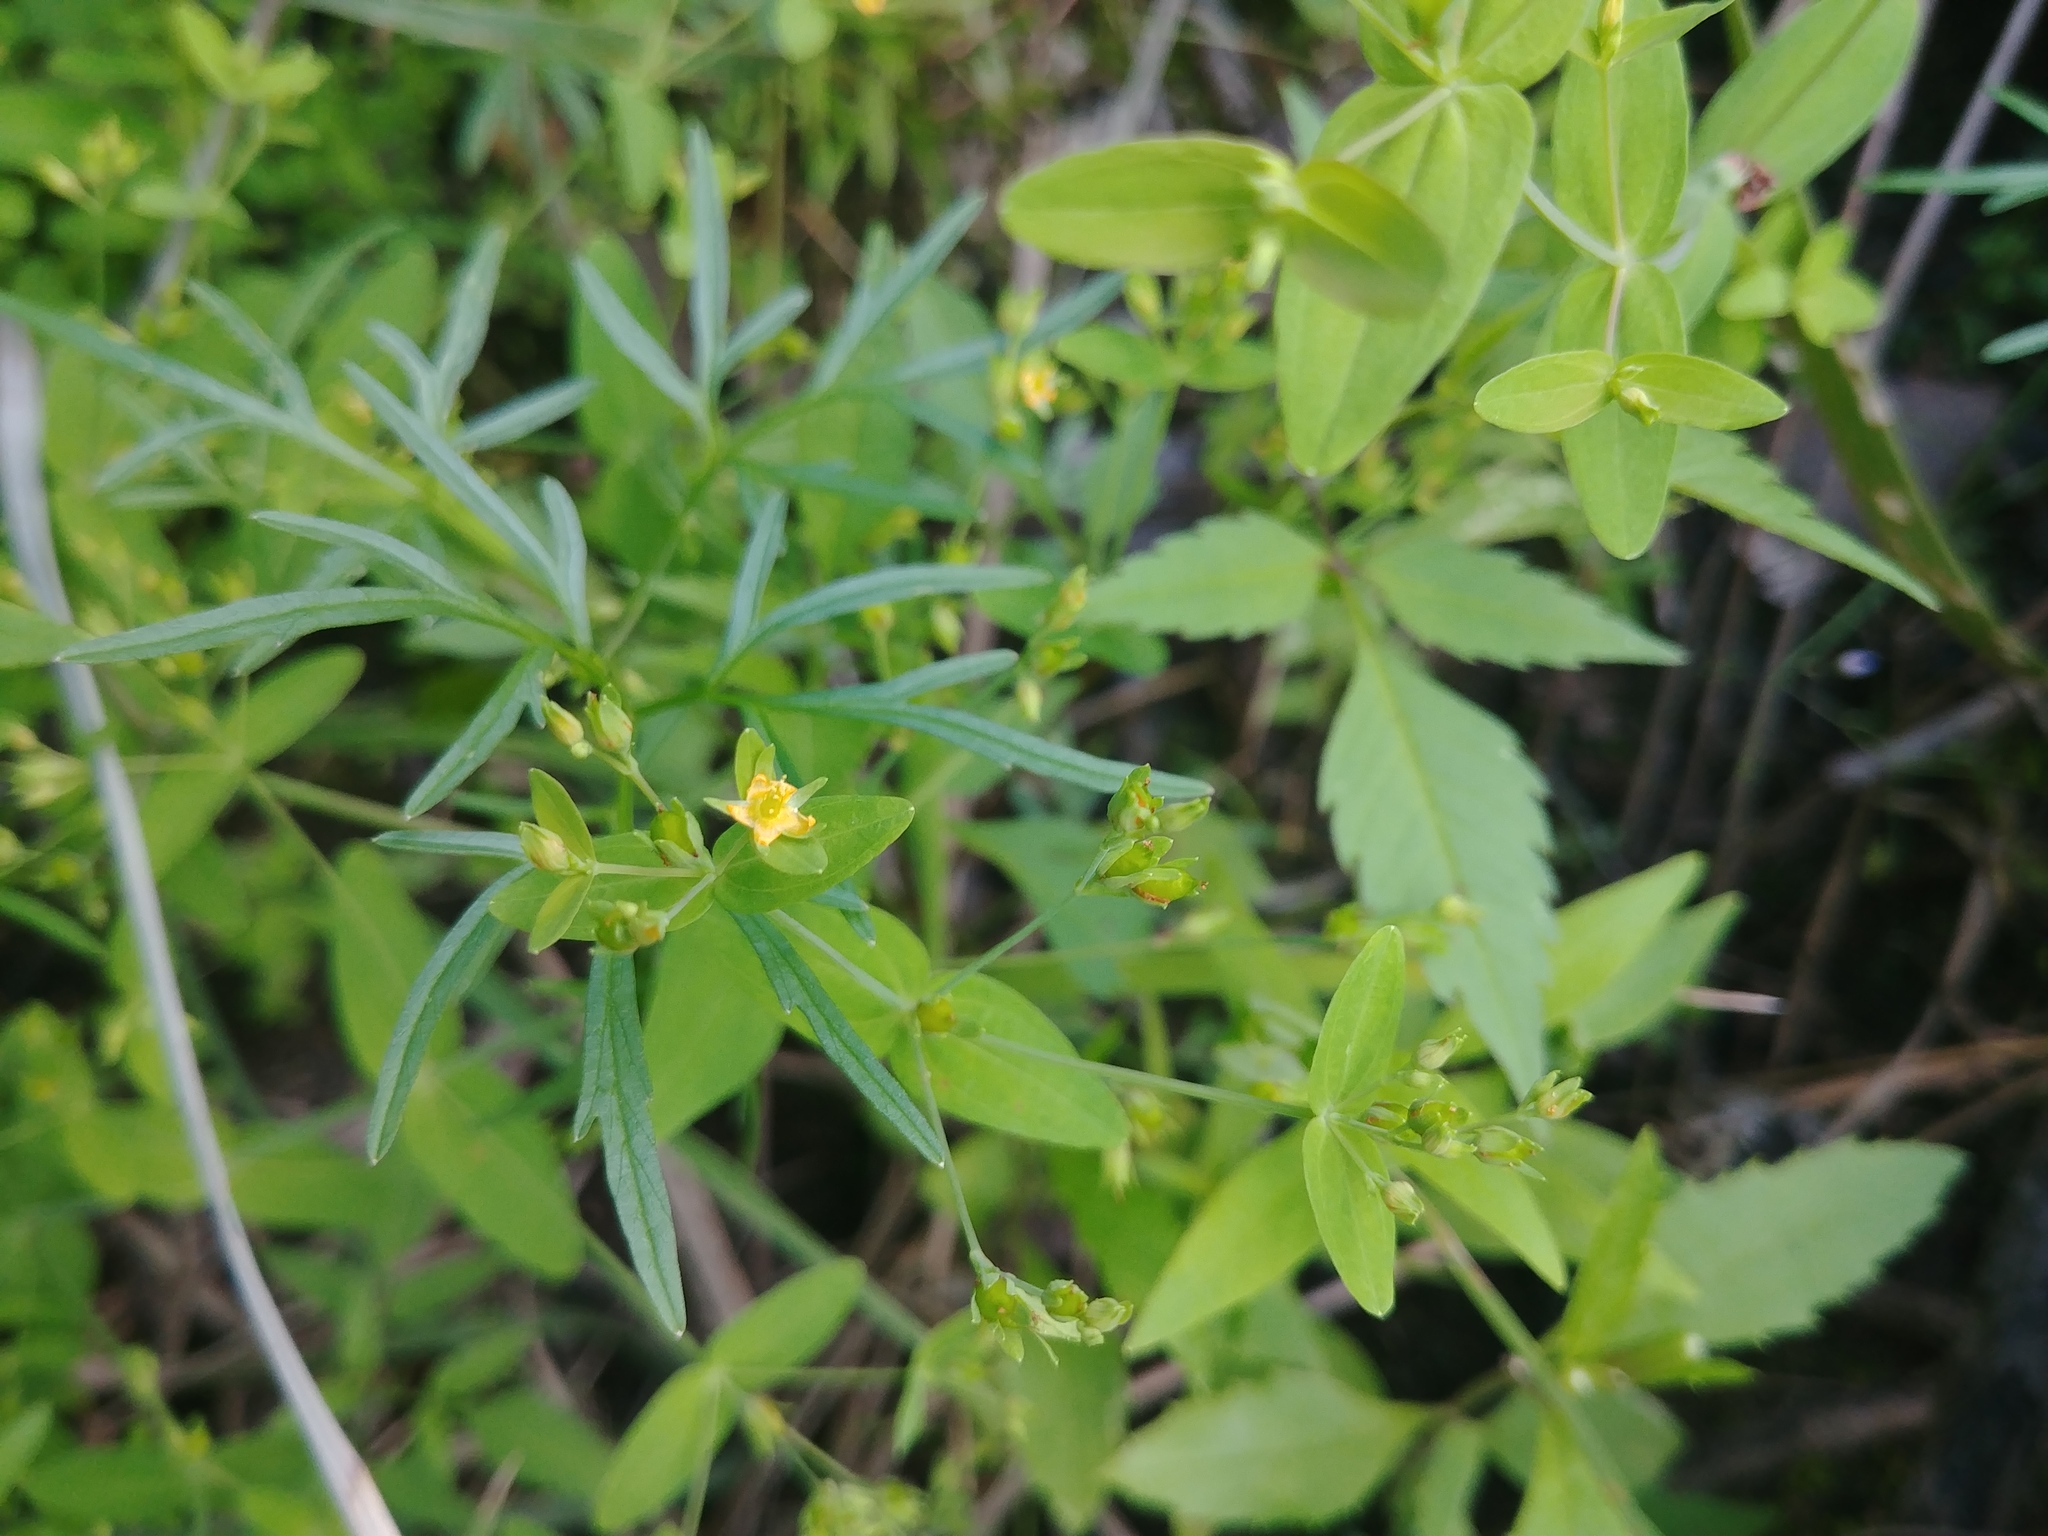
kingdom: Plantae
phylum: Tracheophyta
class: Magnoliopsida
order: Malpighiales
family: Hypericaceae
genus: Hypericum
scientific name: Hypericum mutilum
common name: Dwarf st. john's-wort
